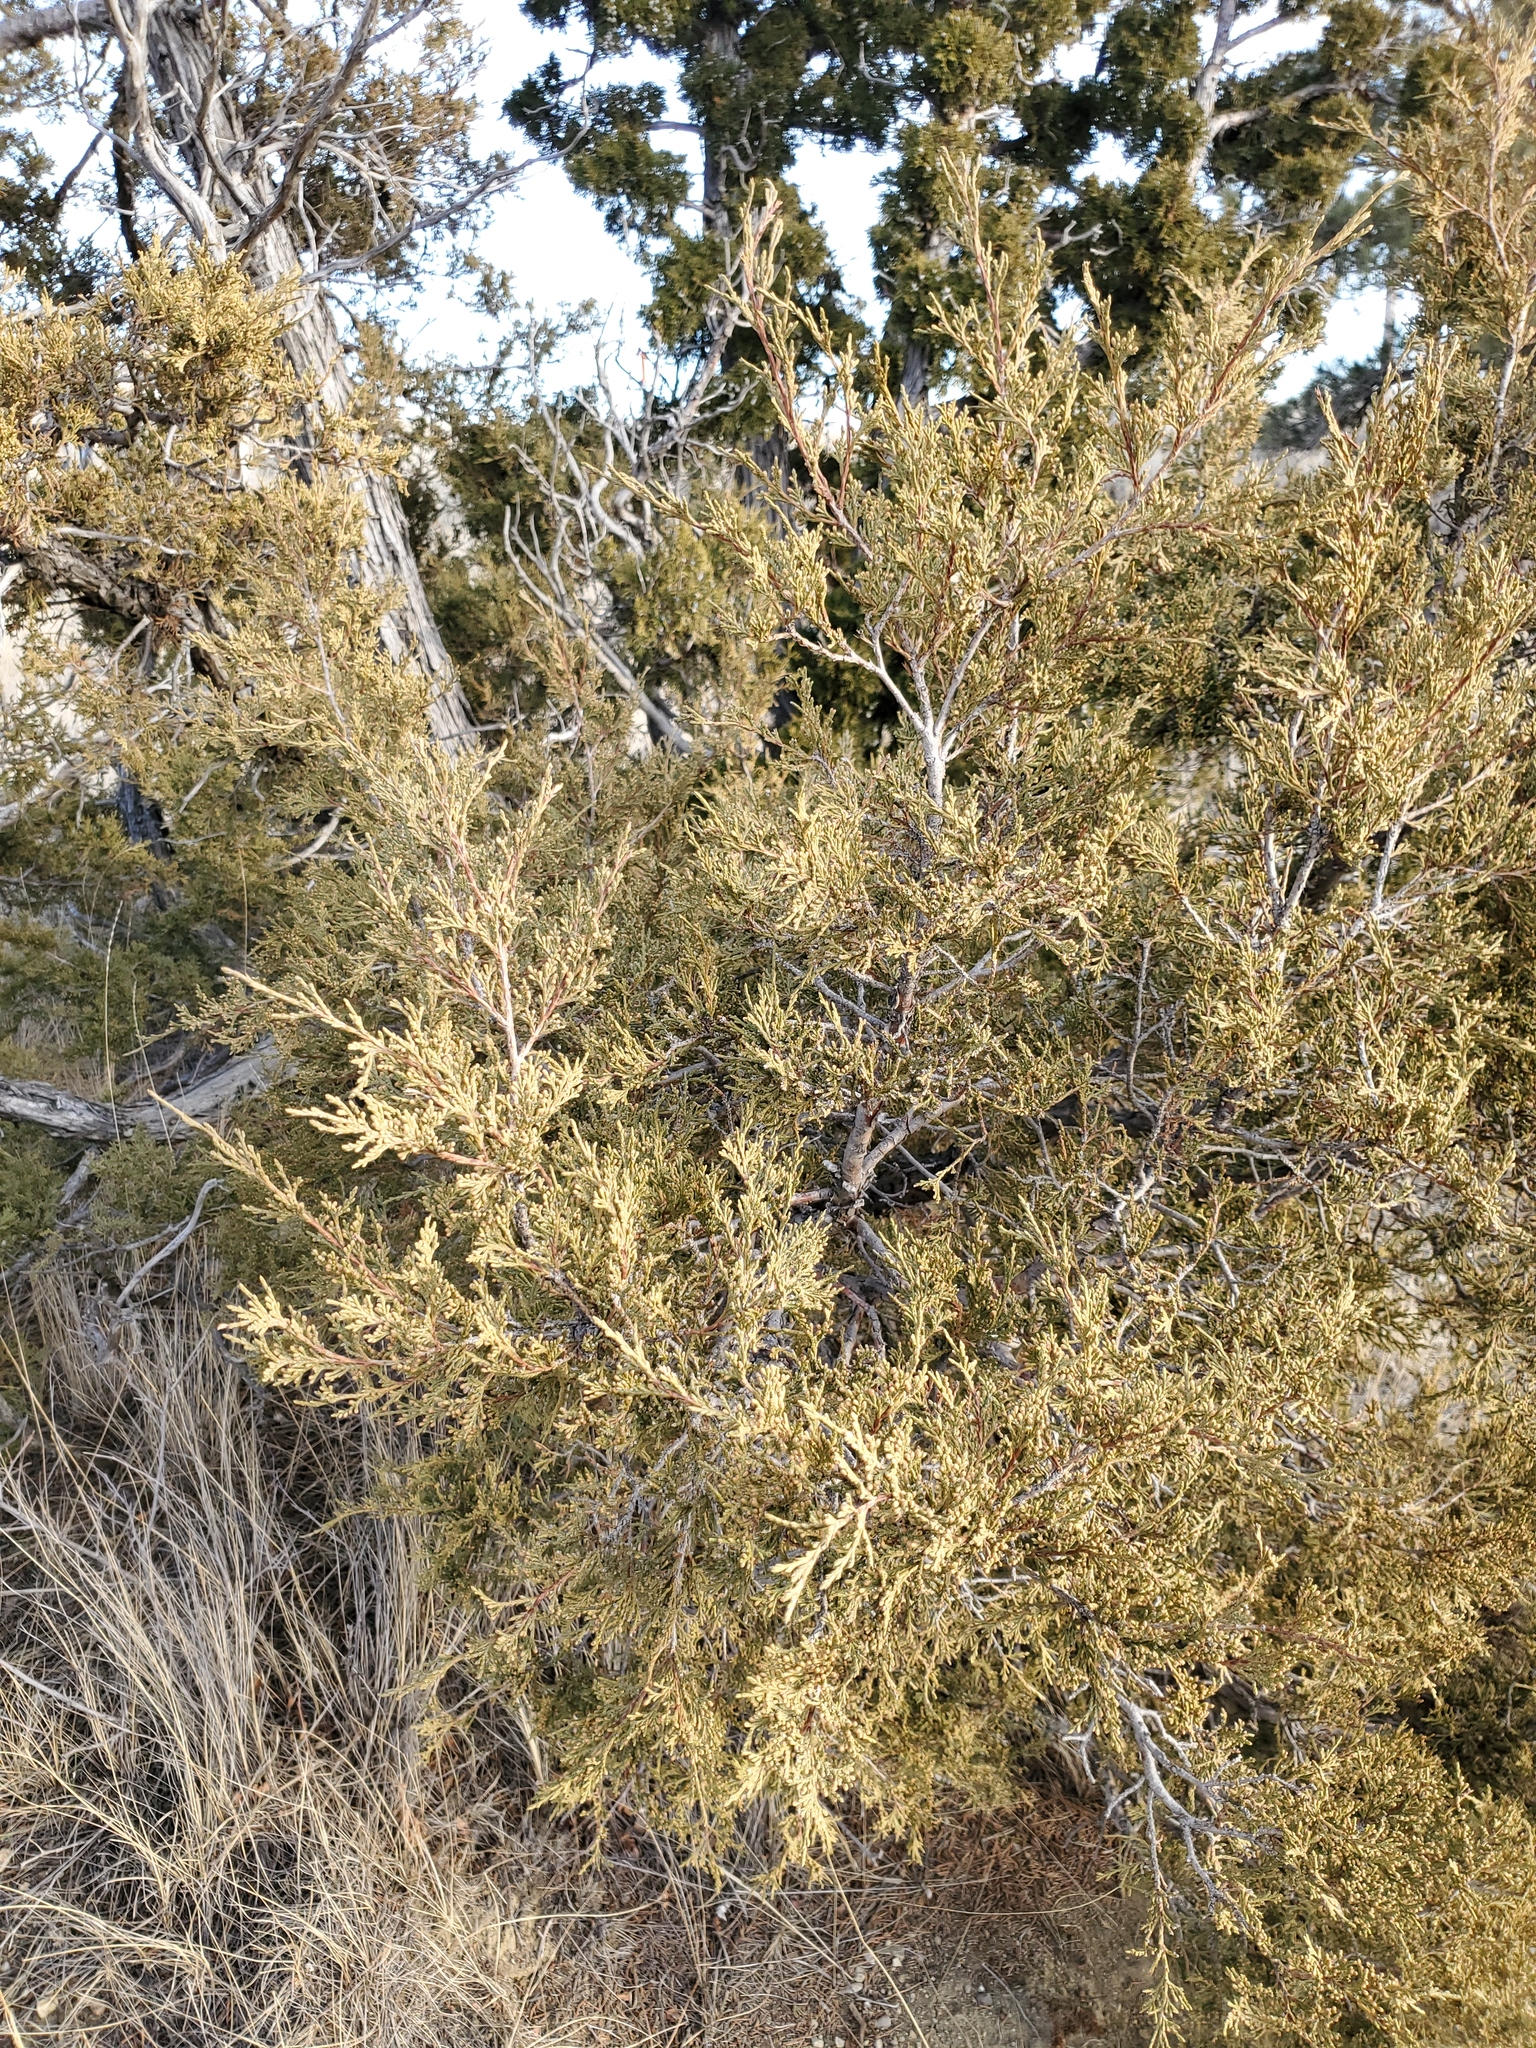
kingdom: Plantae
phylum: Tracheophyta
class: Pinopsida
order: Pinales
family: Cupressaceae
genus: Juniperus
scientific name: Juniperus scopulorum
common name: Rocky mountain juniper
